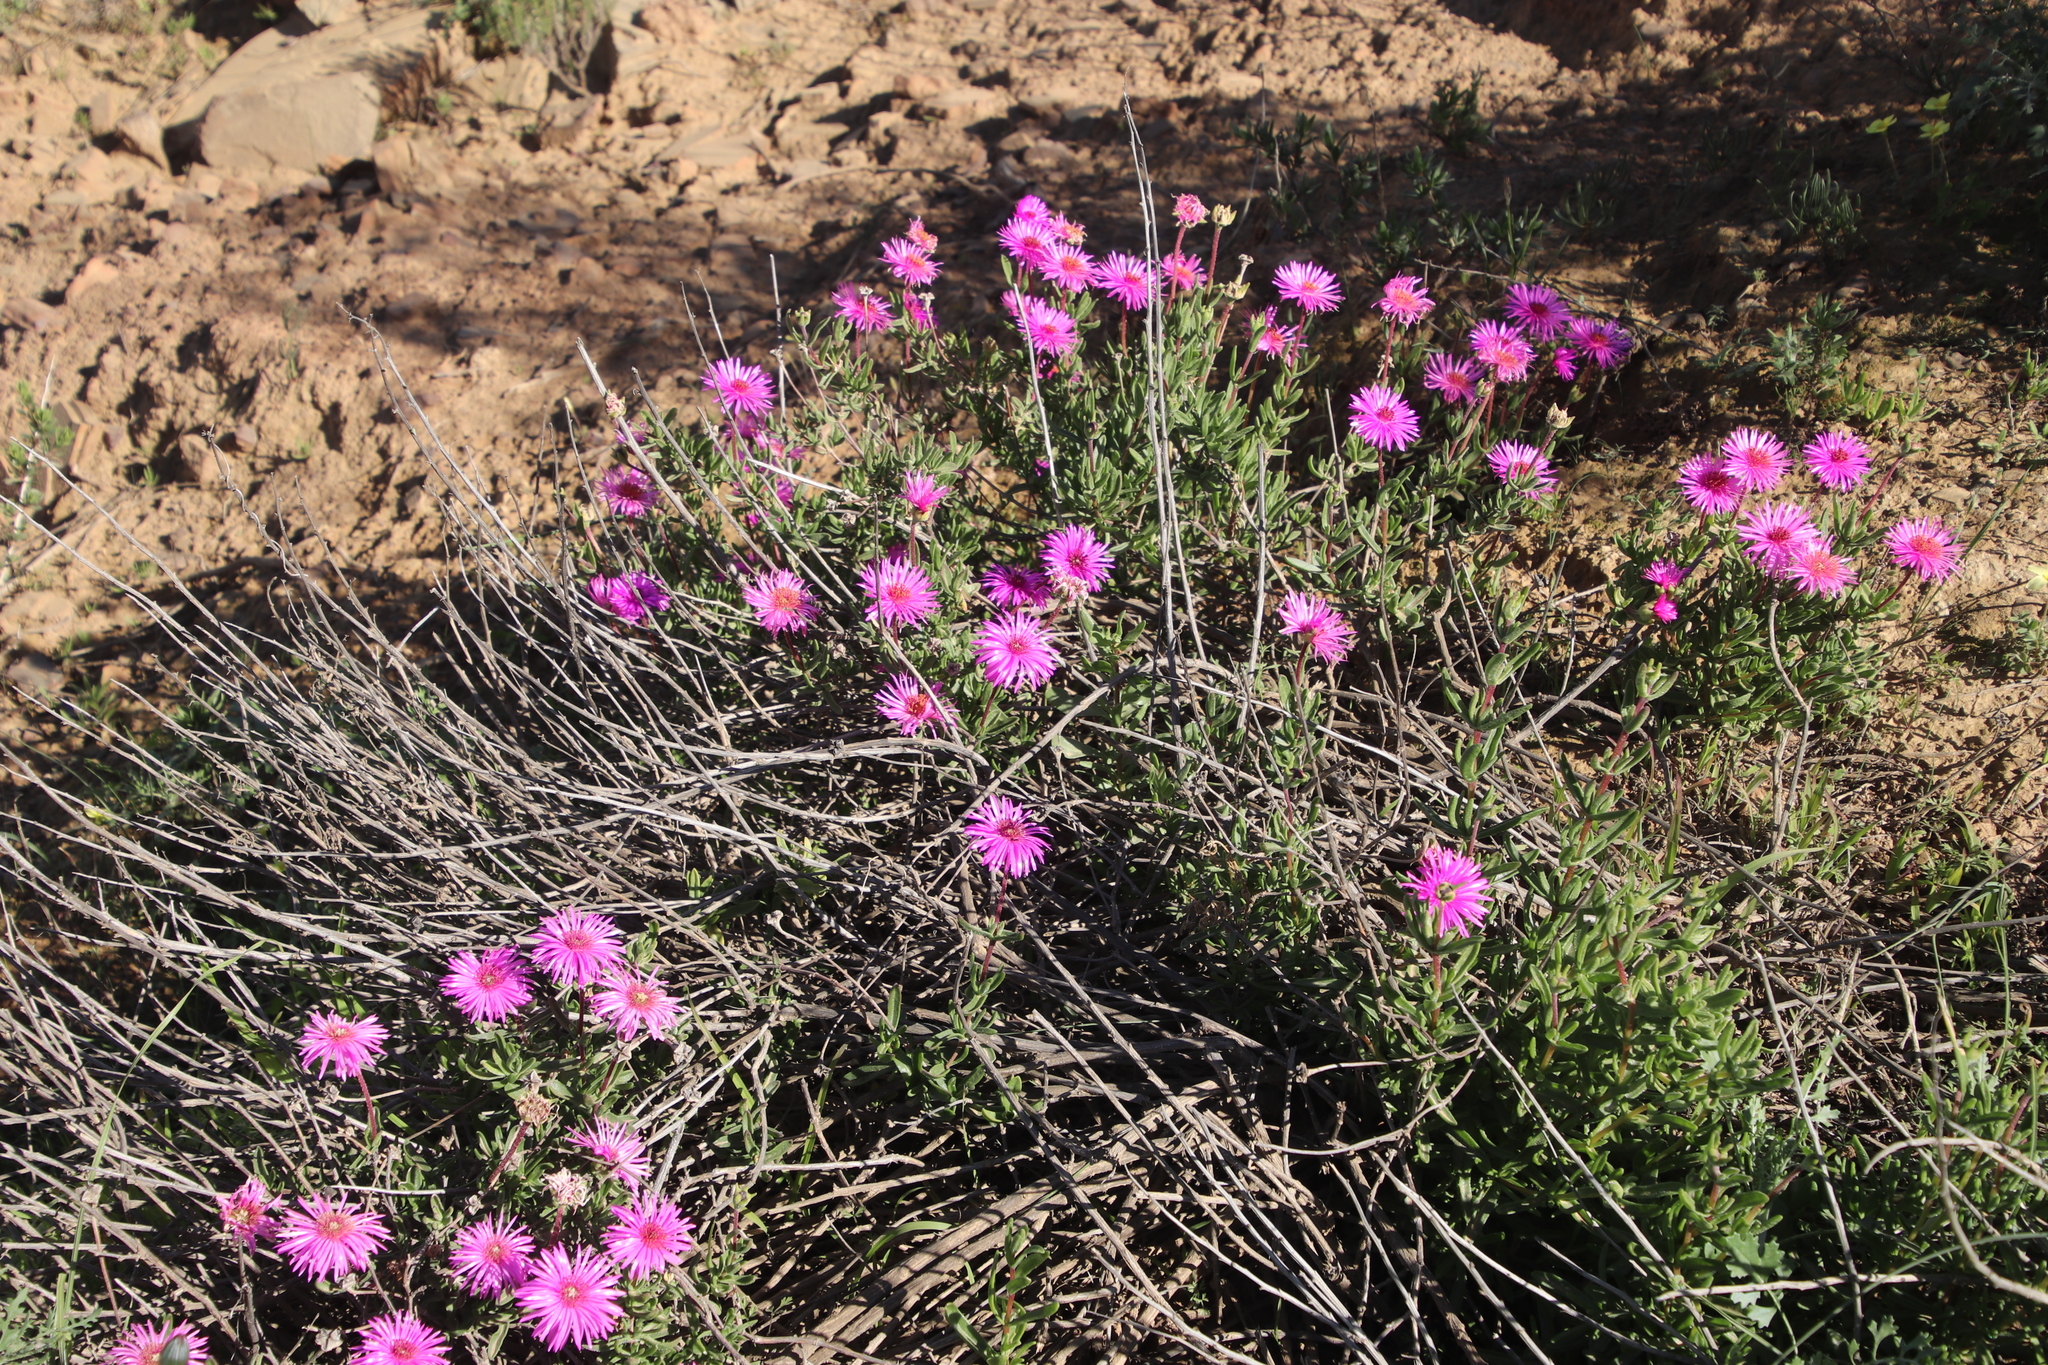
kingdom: Plantae
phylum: Tracheophyta
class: Magnoliopsida
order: Caryophyllales
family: Aizoaceae
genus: Drosanthemum
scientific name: Drosanthemum longipes
